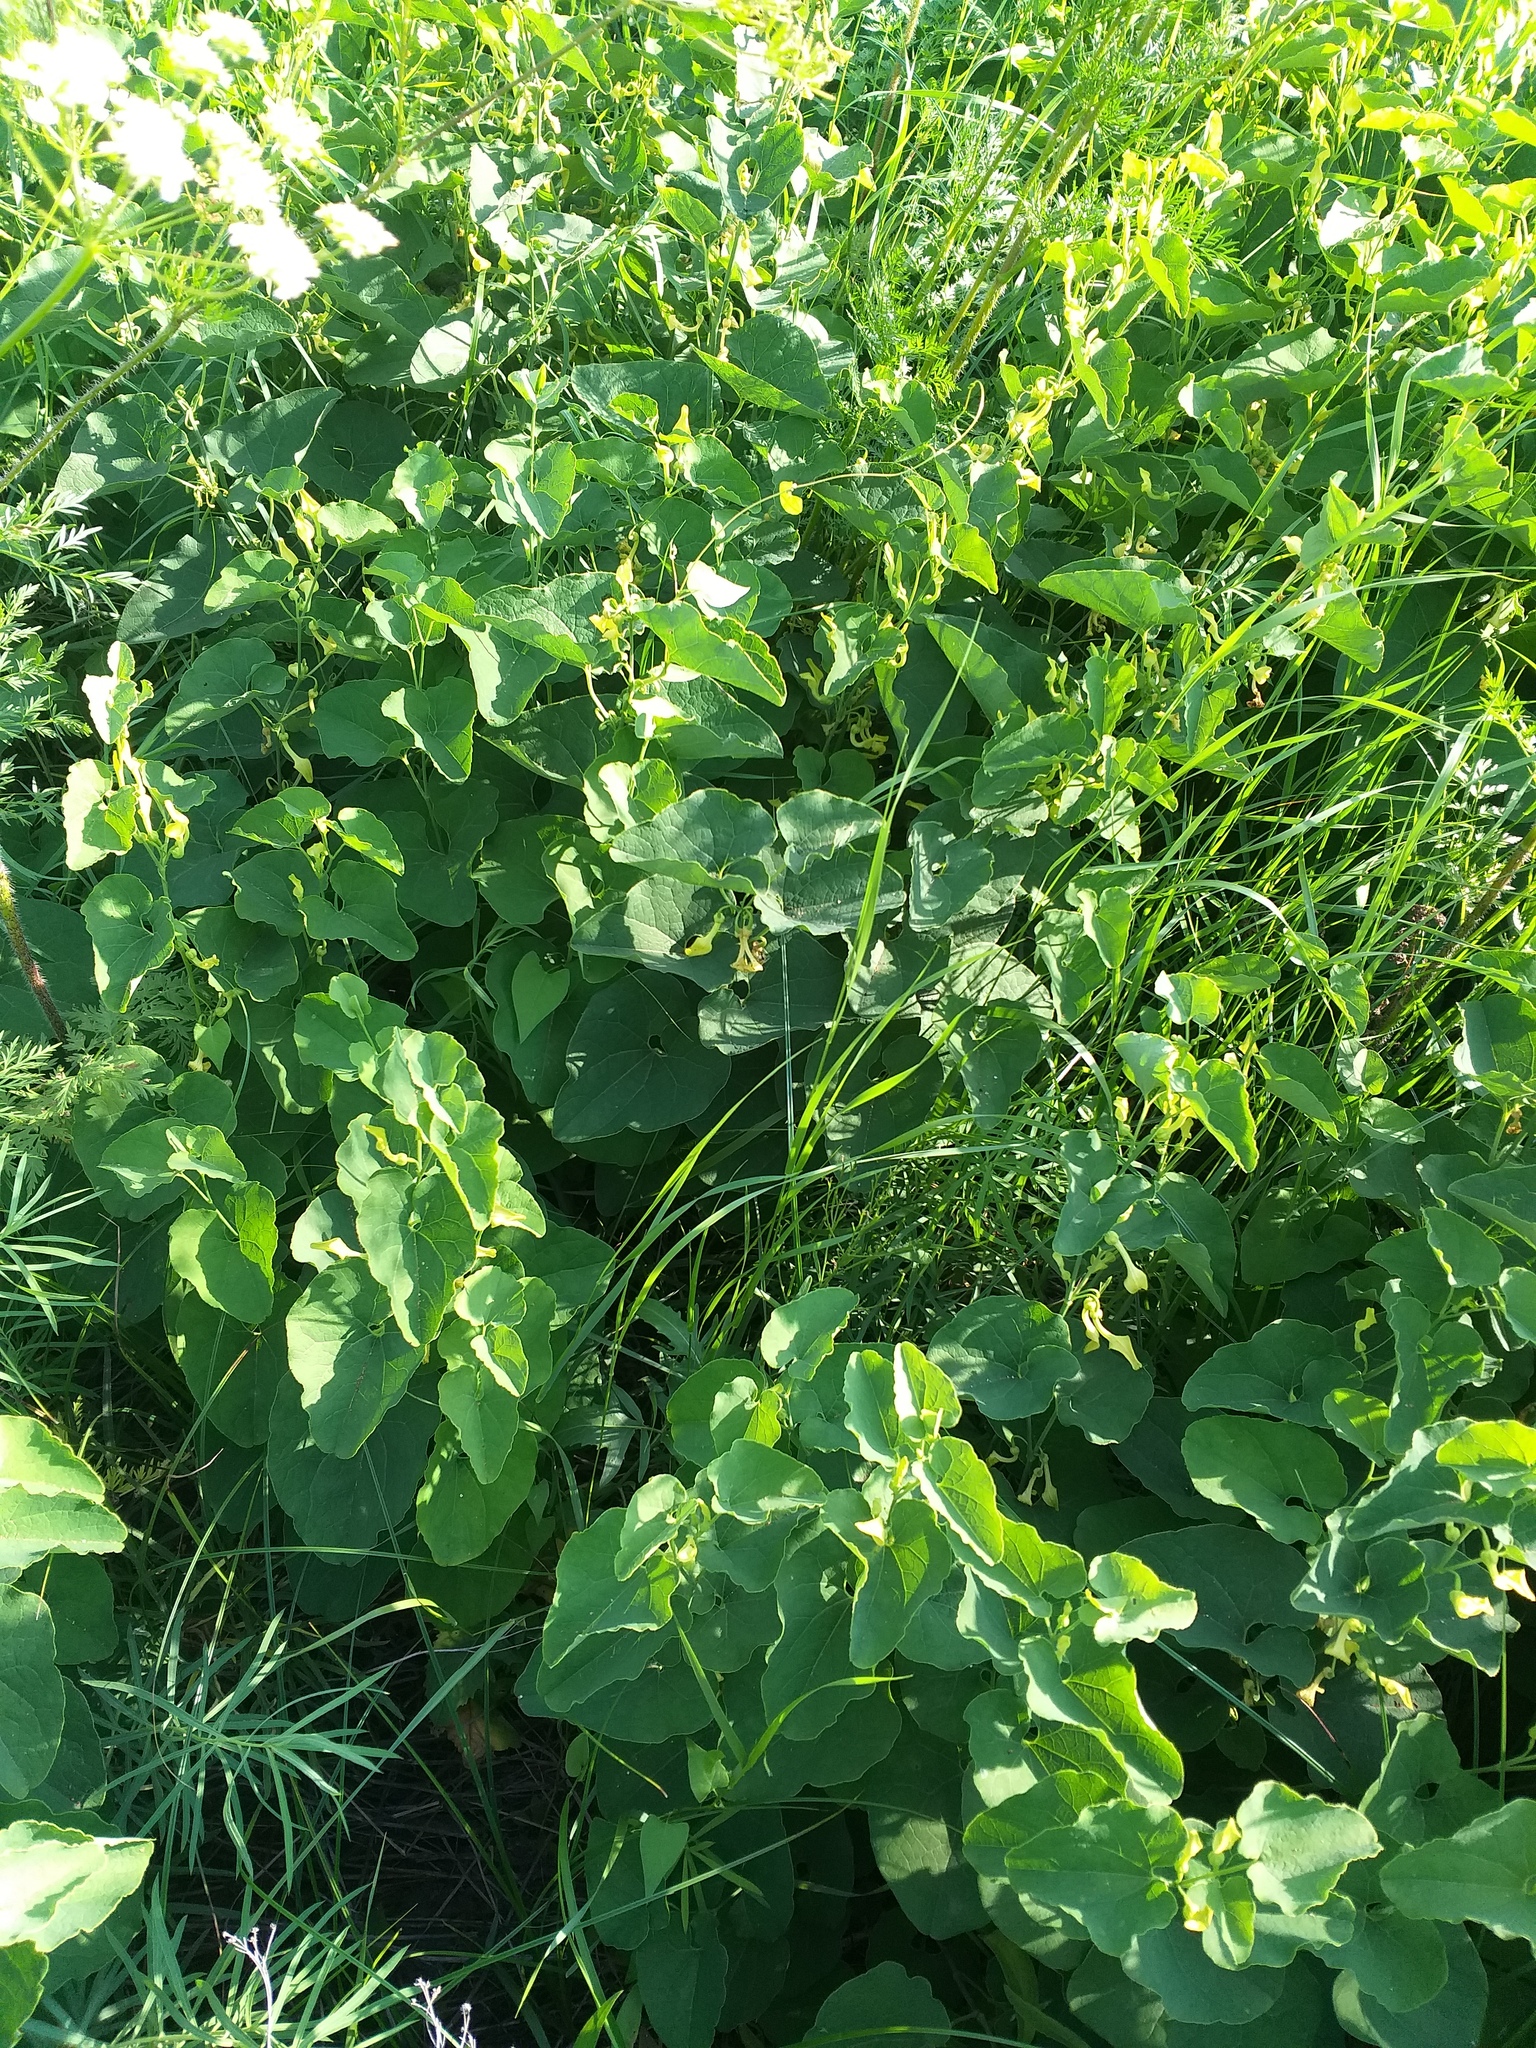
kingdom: Plantae
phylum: Tracheophyta
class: Magnoliopsida
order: Piperales
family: Aristolochiaceae
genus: Aristolochia
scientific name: Aristolochia clematitis
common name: Birthwort
